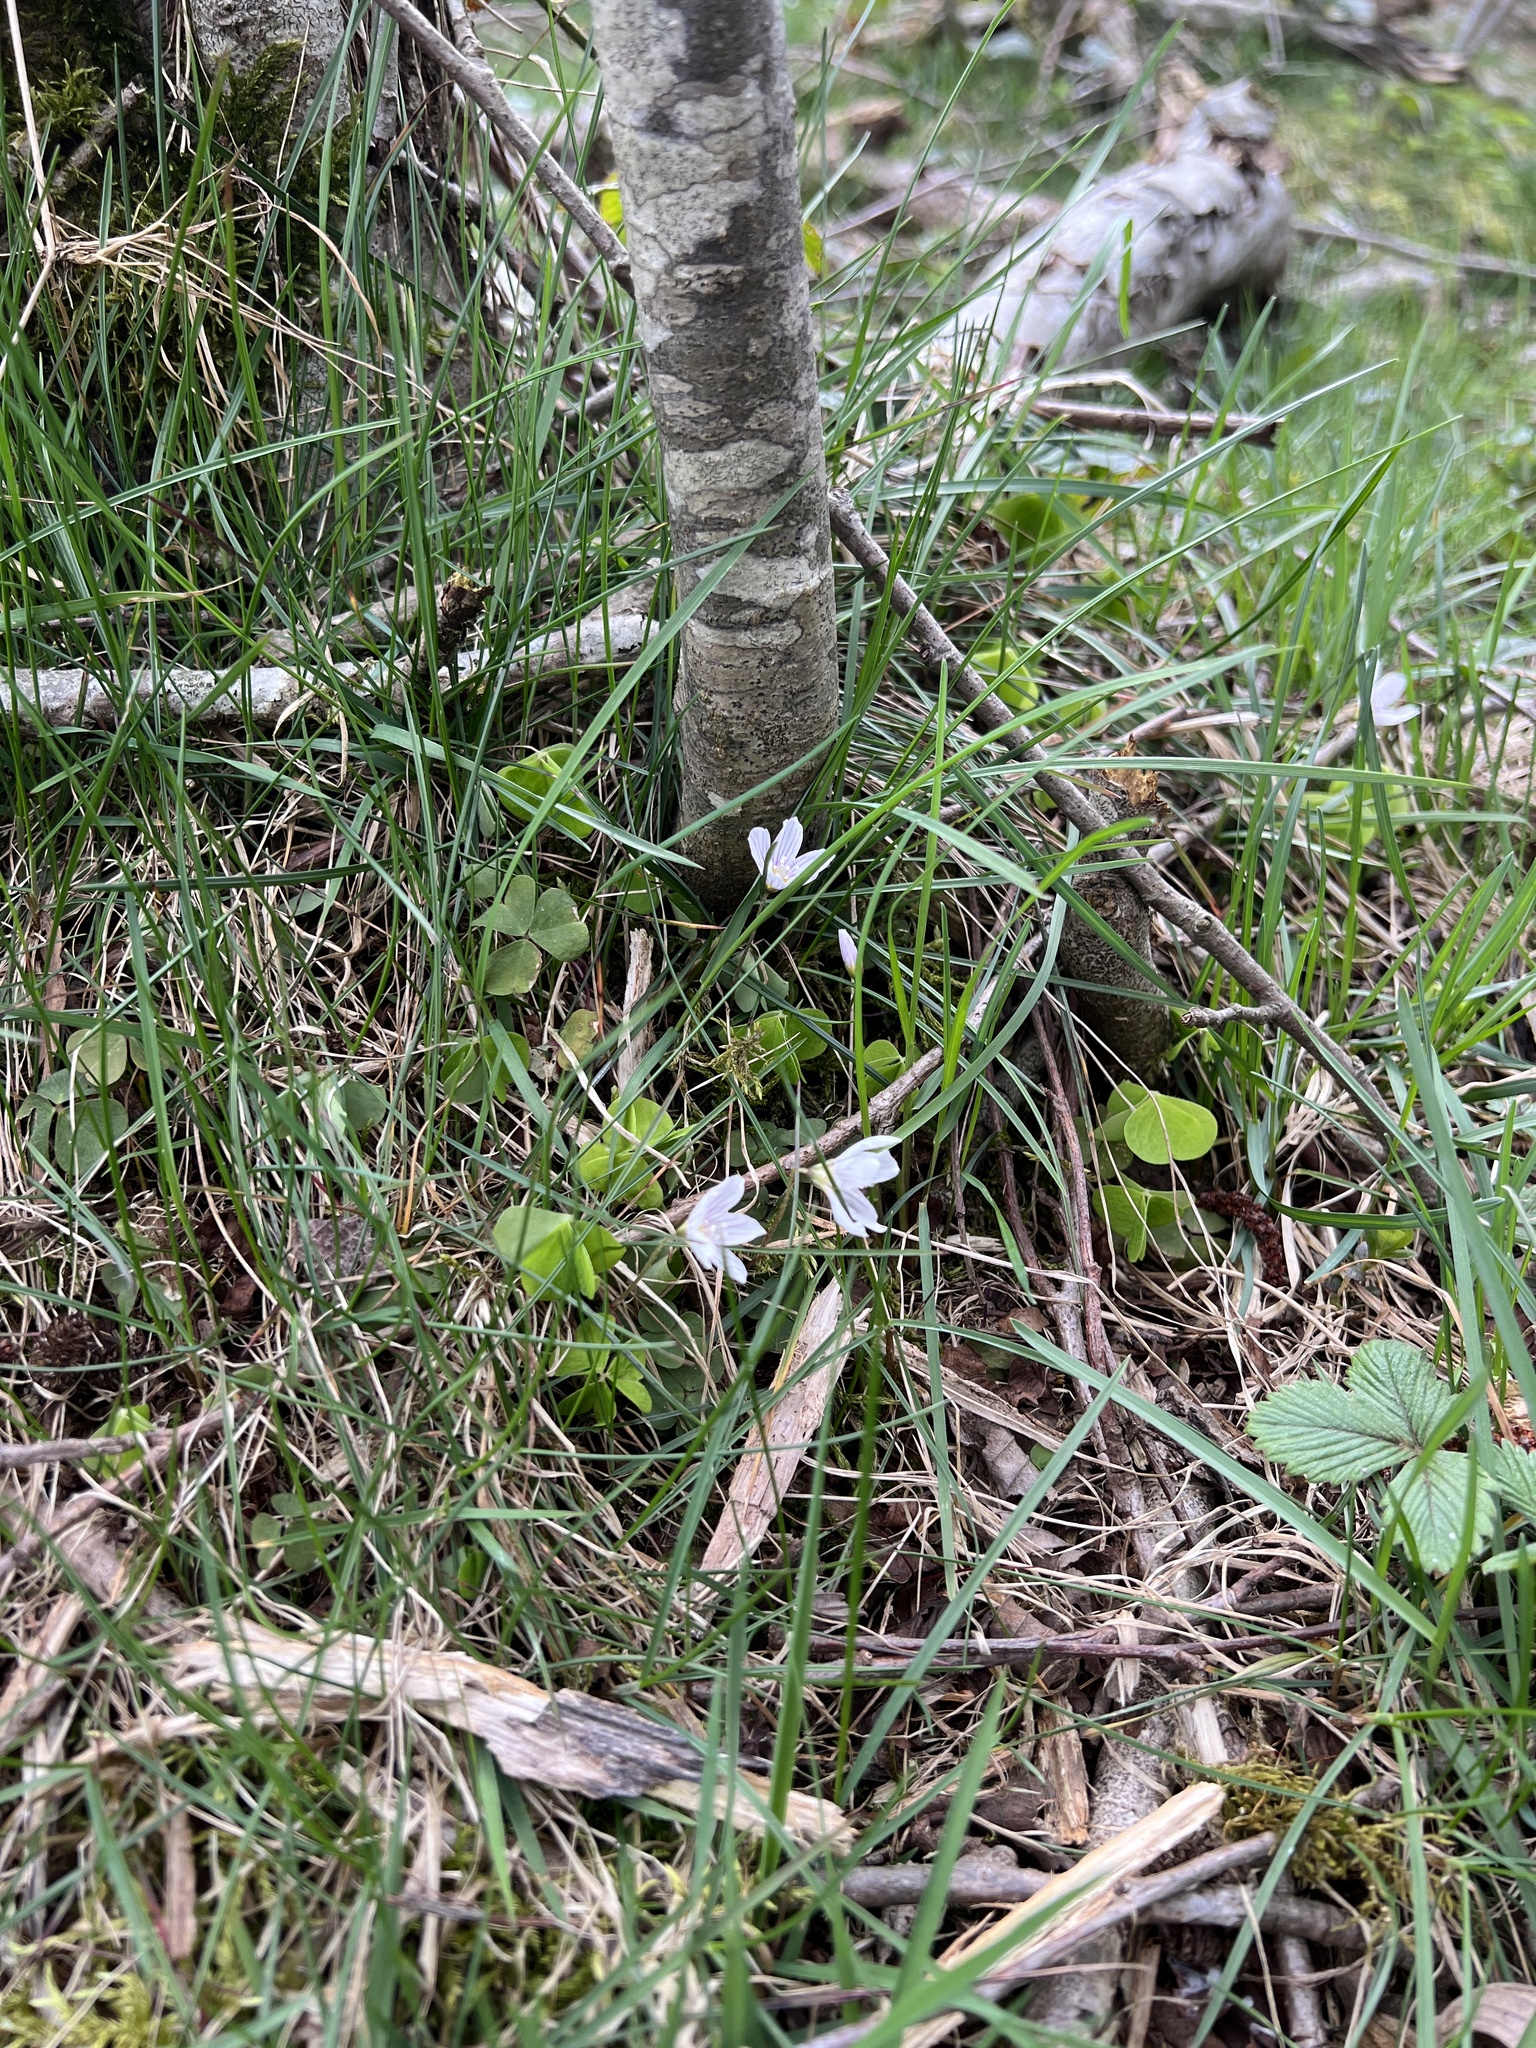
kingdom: Plantae
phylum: Tracheophyta
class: Magnoliopsida
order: Oxalidales
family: Oxalidaceae
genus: Oxalis
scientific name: Oxalis acetosella
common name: Wood-sorrel
